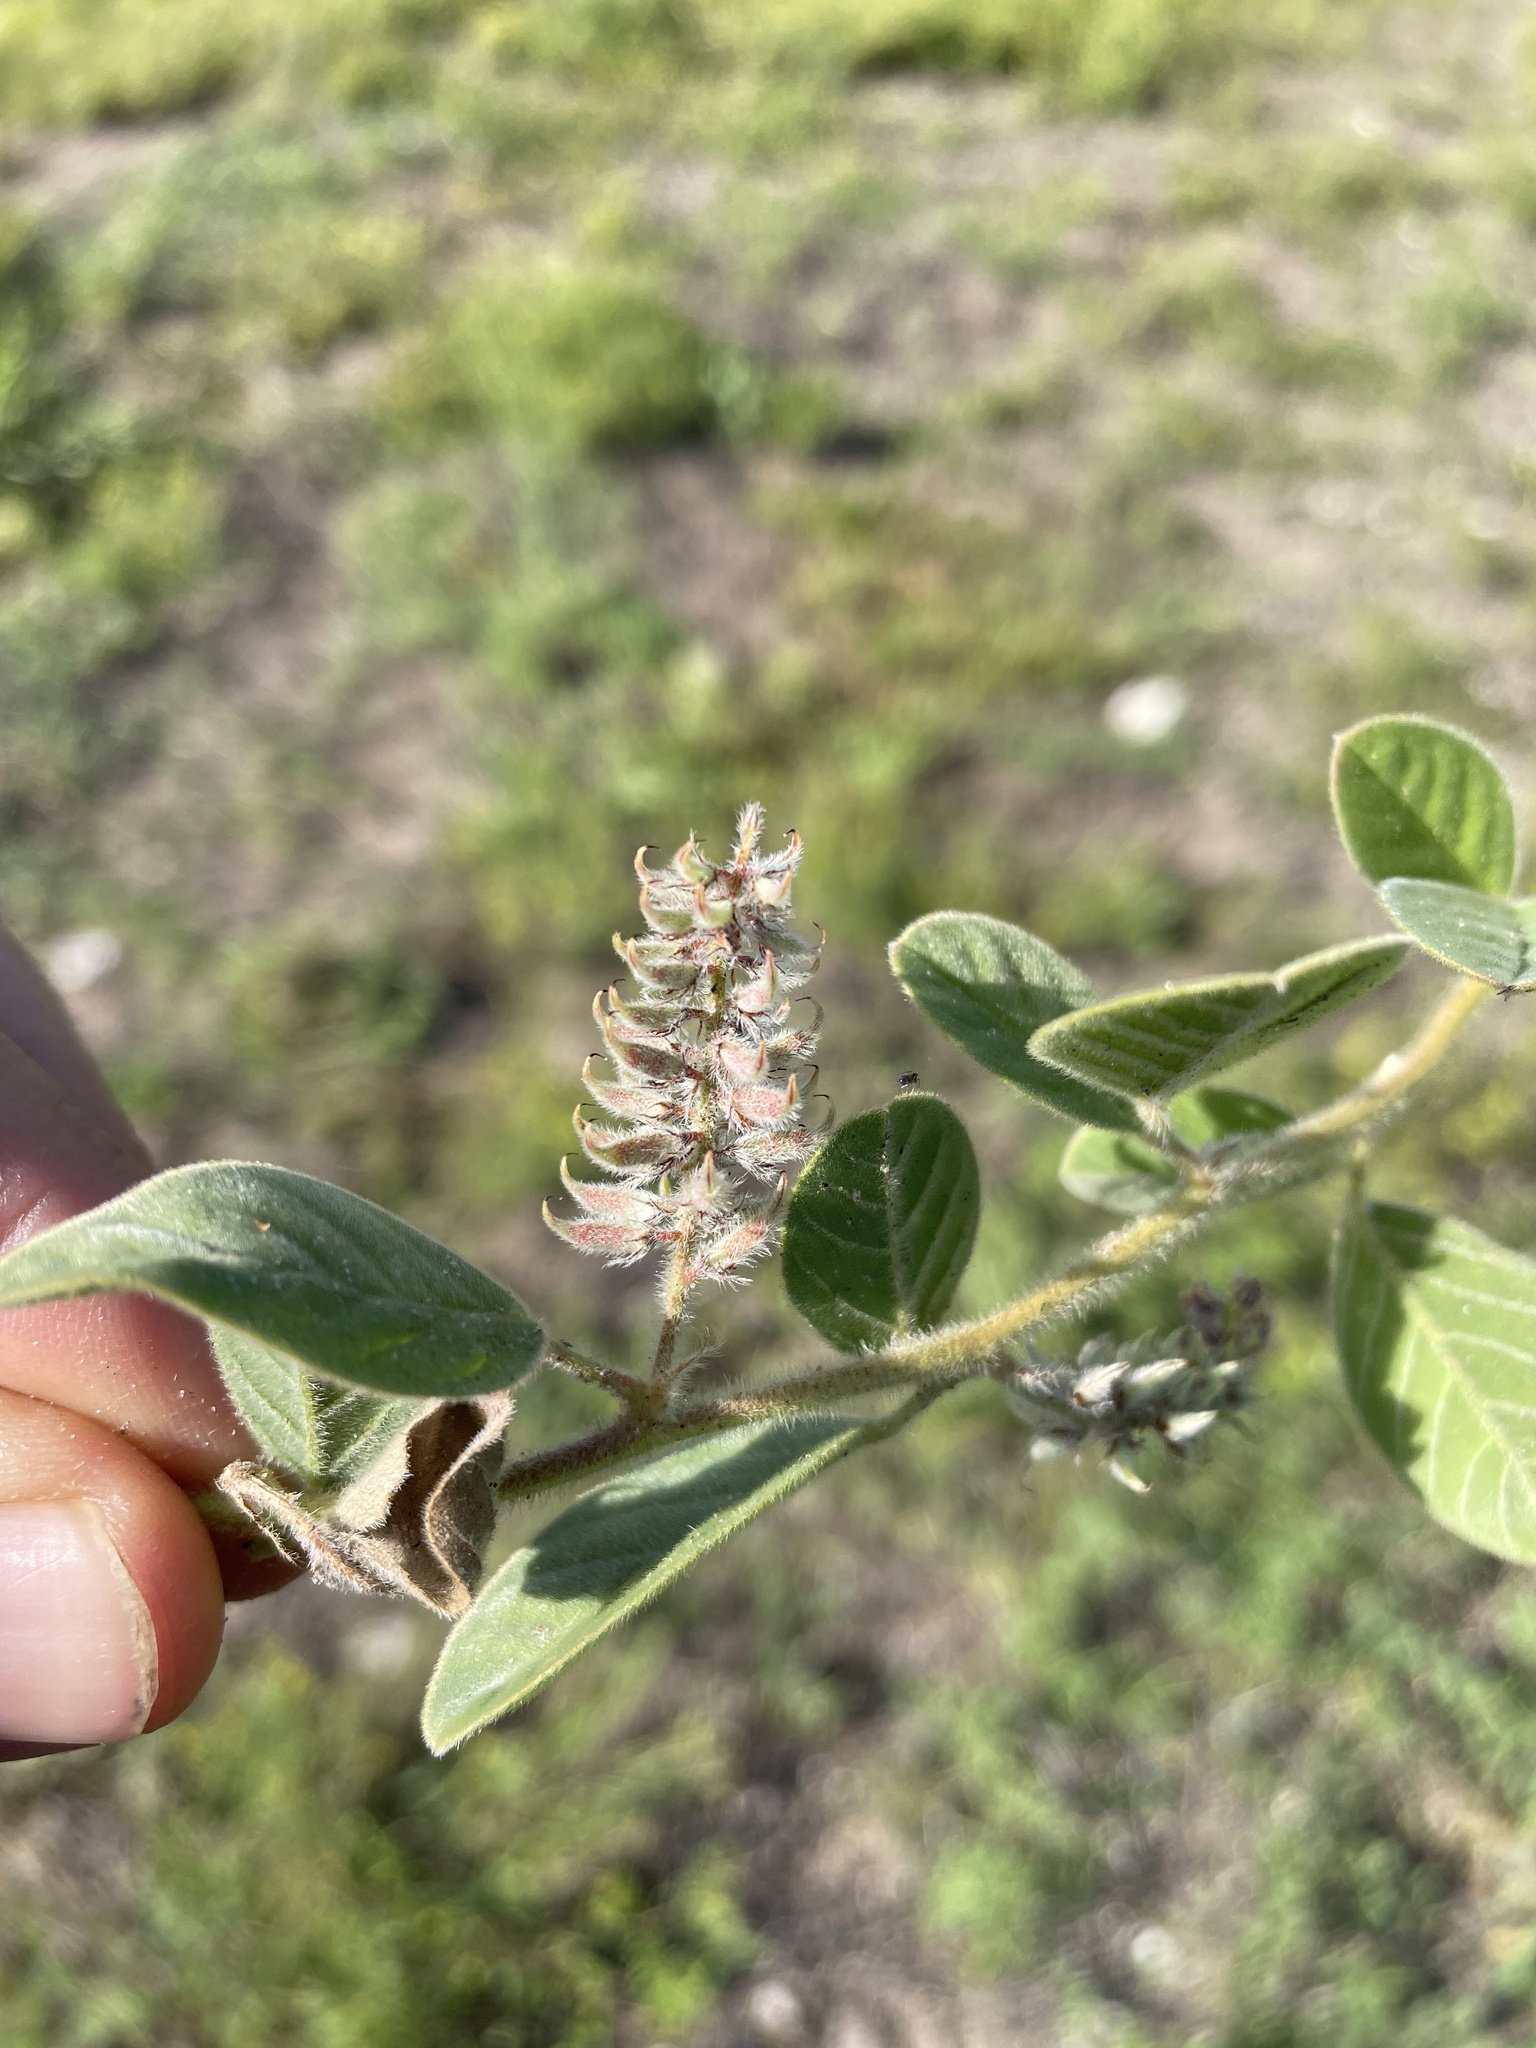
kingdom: Plantae
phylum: Tracheophyta
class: Magnoliopsida
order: Fabales
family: Fabaceae
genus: Indigofera
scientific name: Indigofera flavicans
